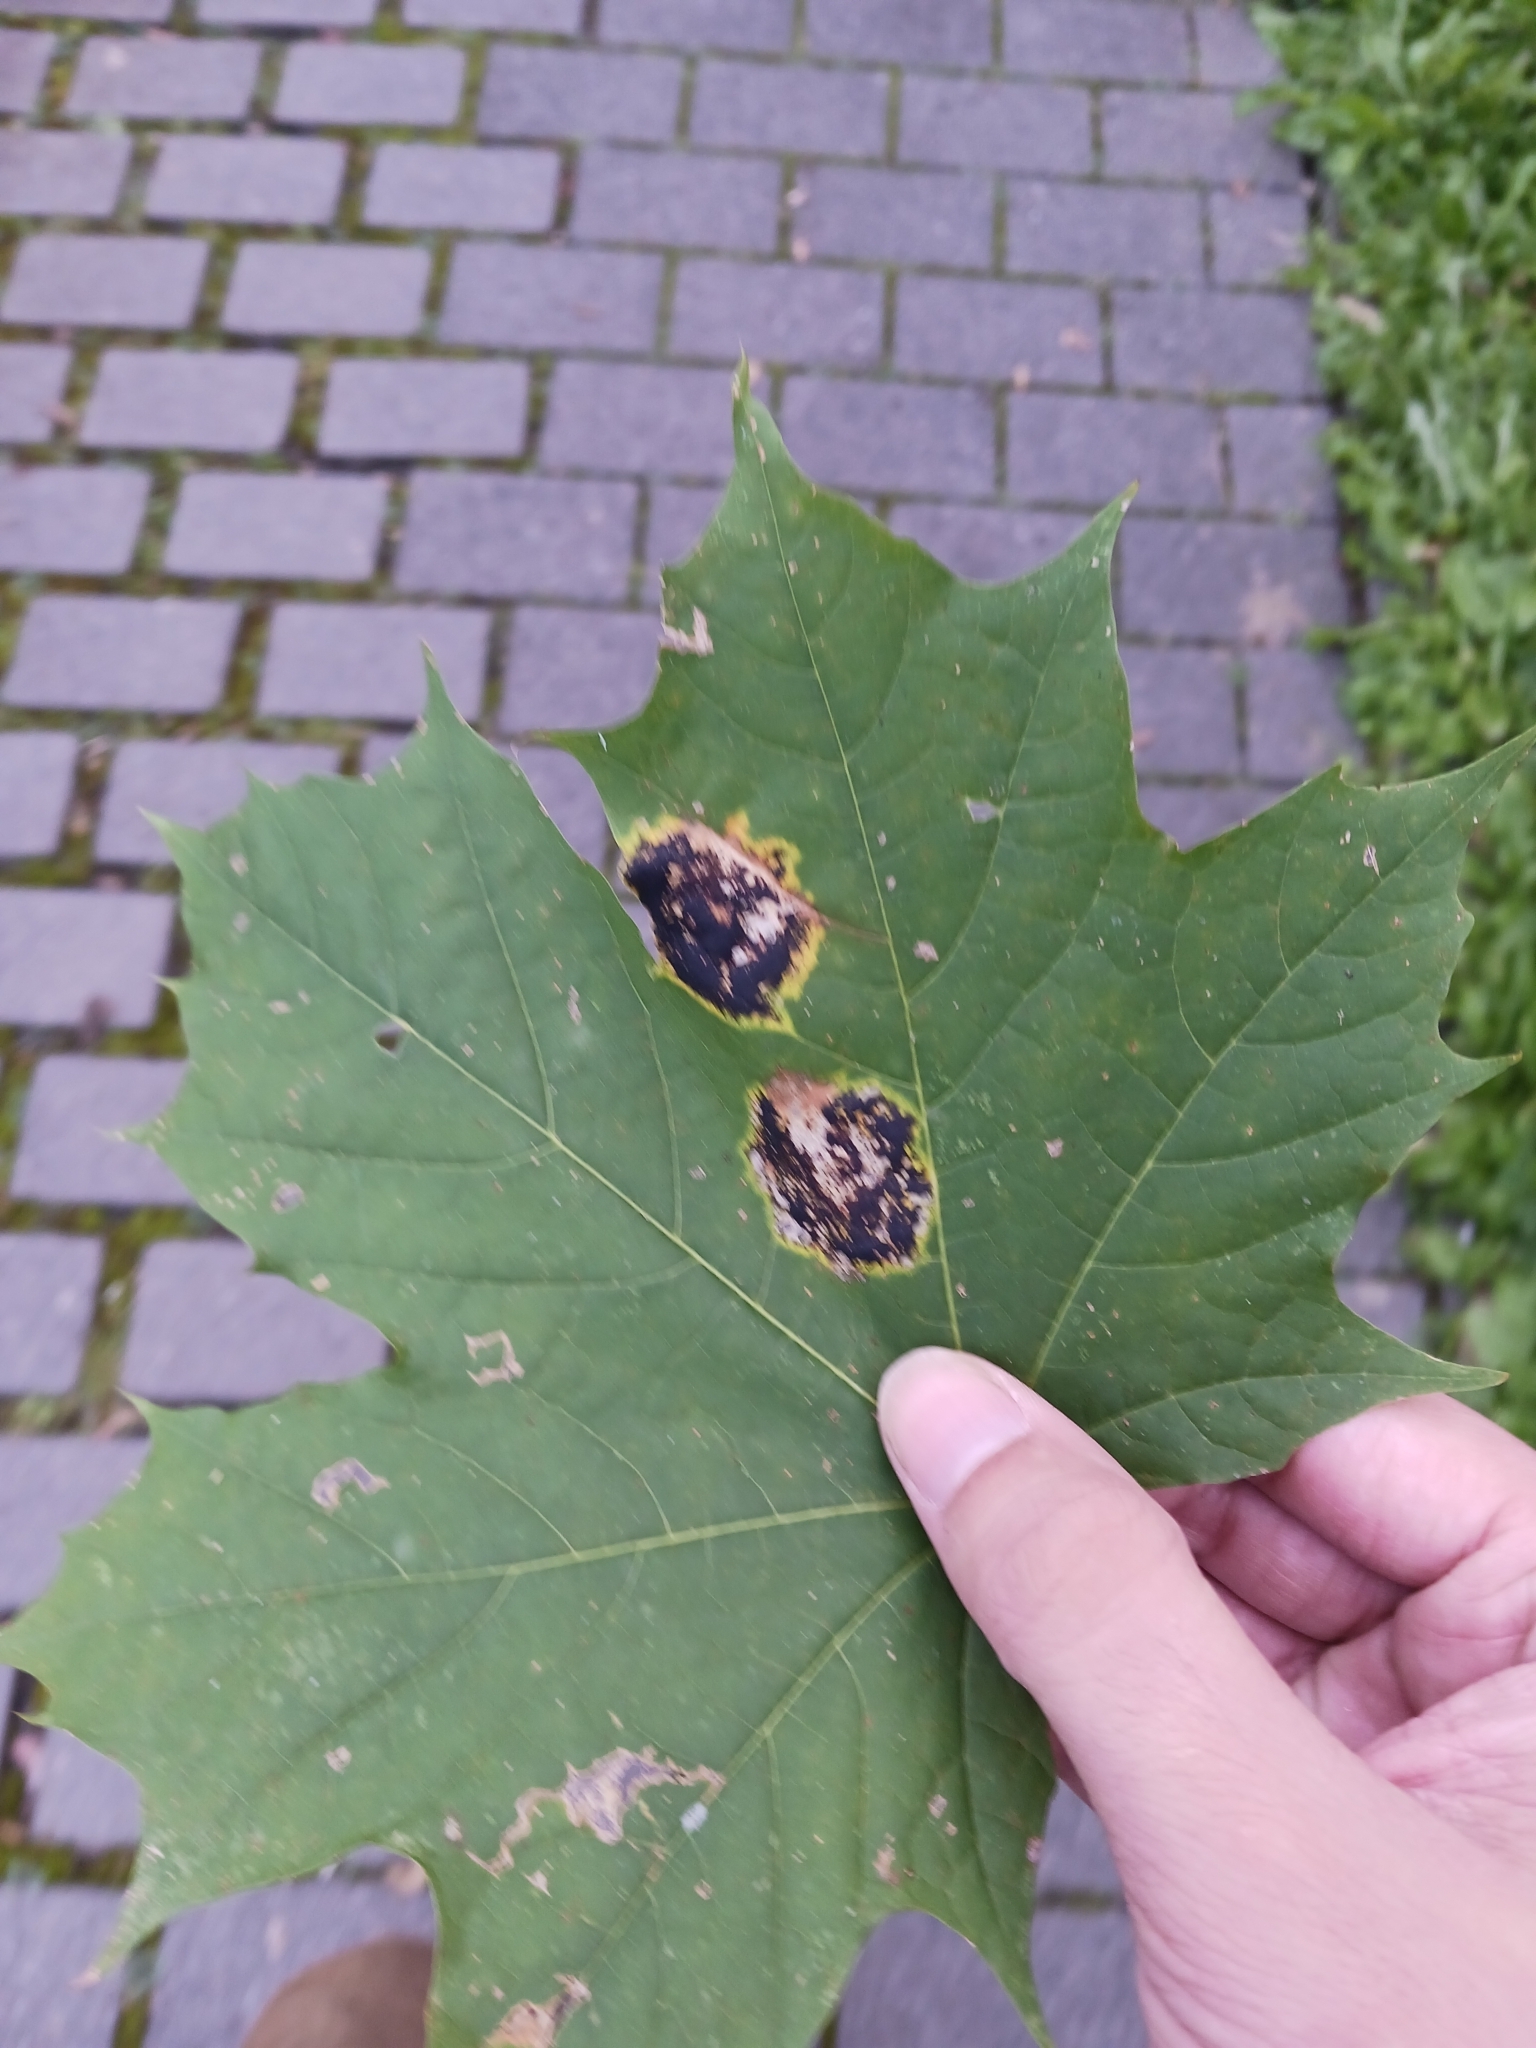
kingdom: Fungi
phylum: Ascomycota
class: Leotiomycetes
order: Rhytismatales
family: Rhytismataceae
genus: Rhytisma
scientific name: Rhytisma acerinum
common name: European tar spot
